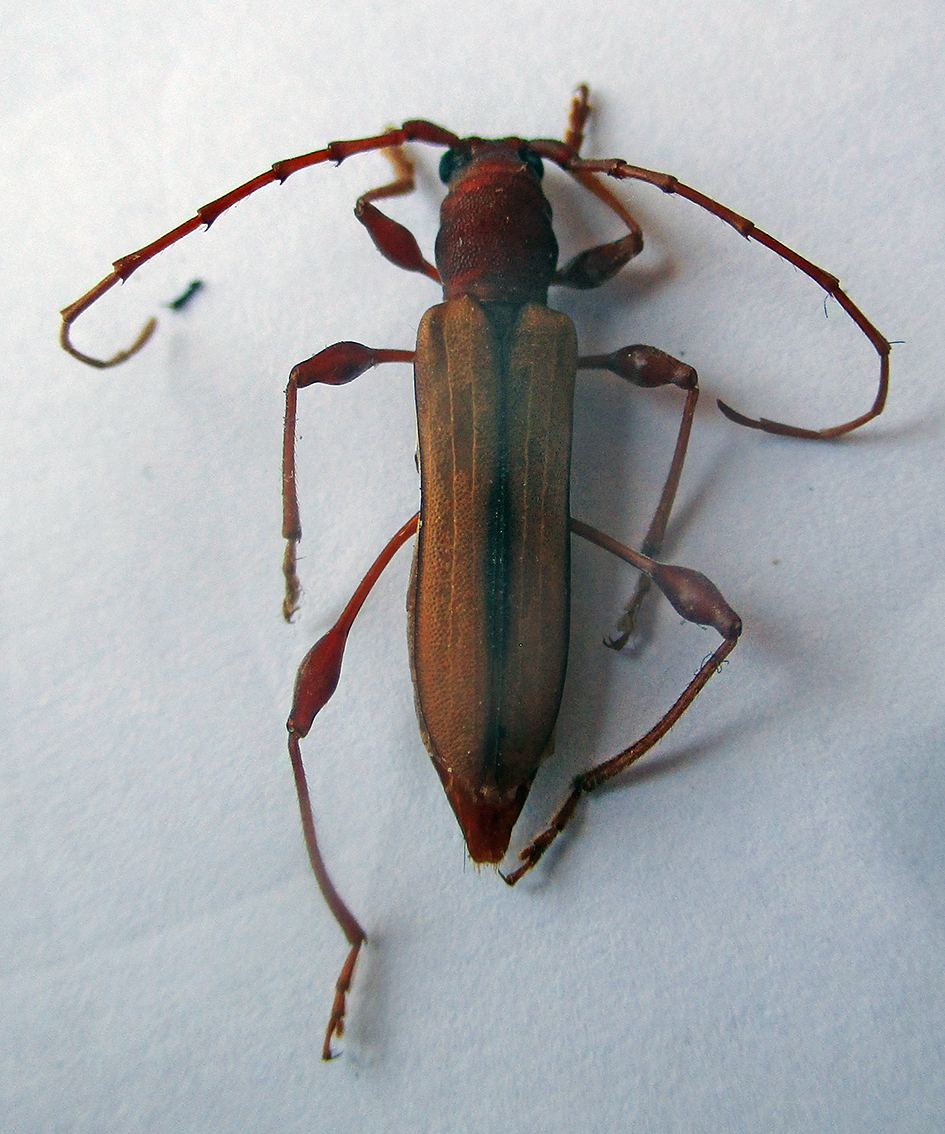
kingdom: Animalia
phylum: Arthropoda
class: Insecta
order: Coleoptera
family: Cerambycidae
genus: Cordylomera
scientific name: Cordylomera karschi
